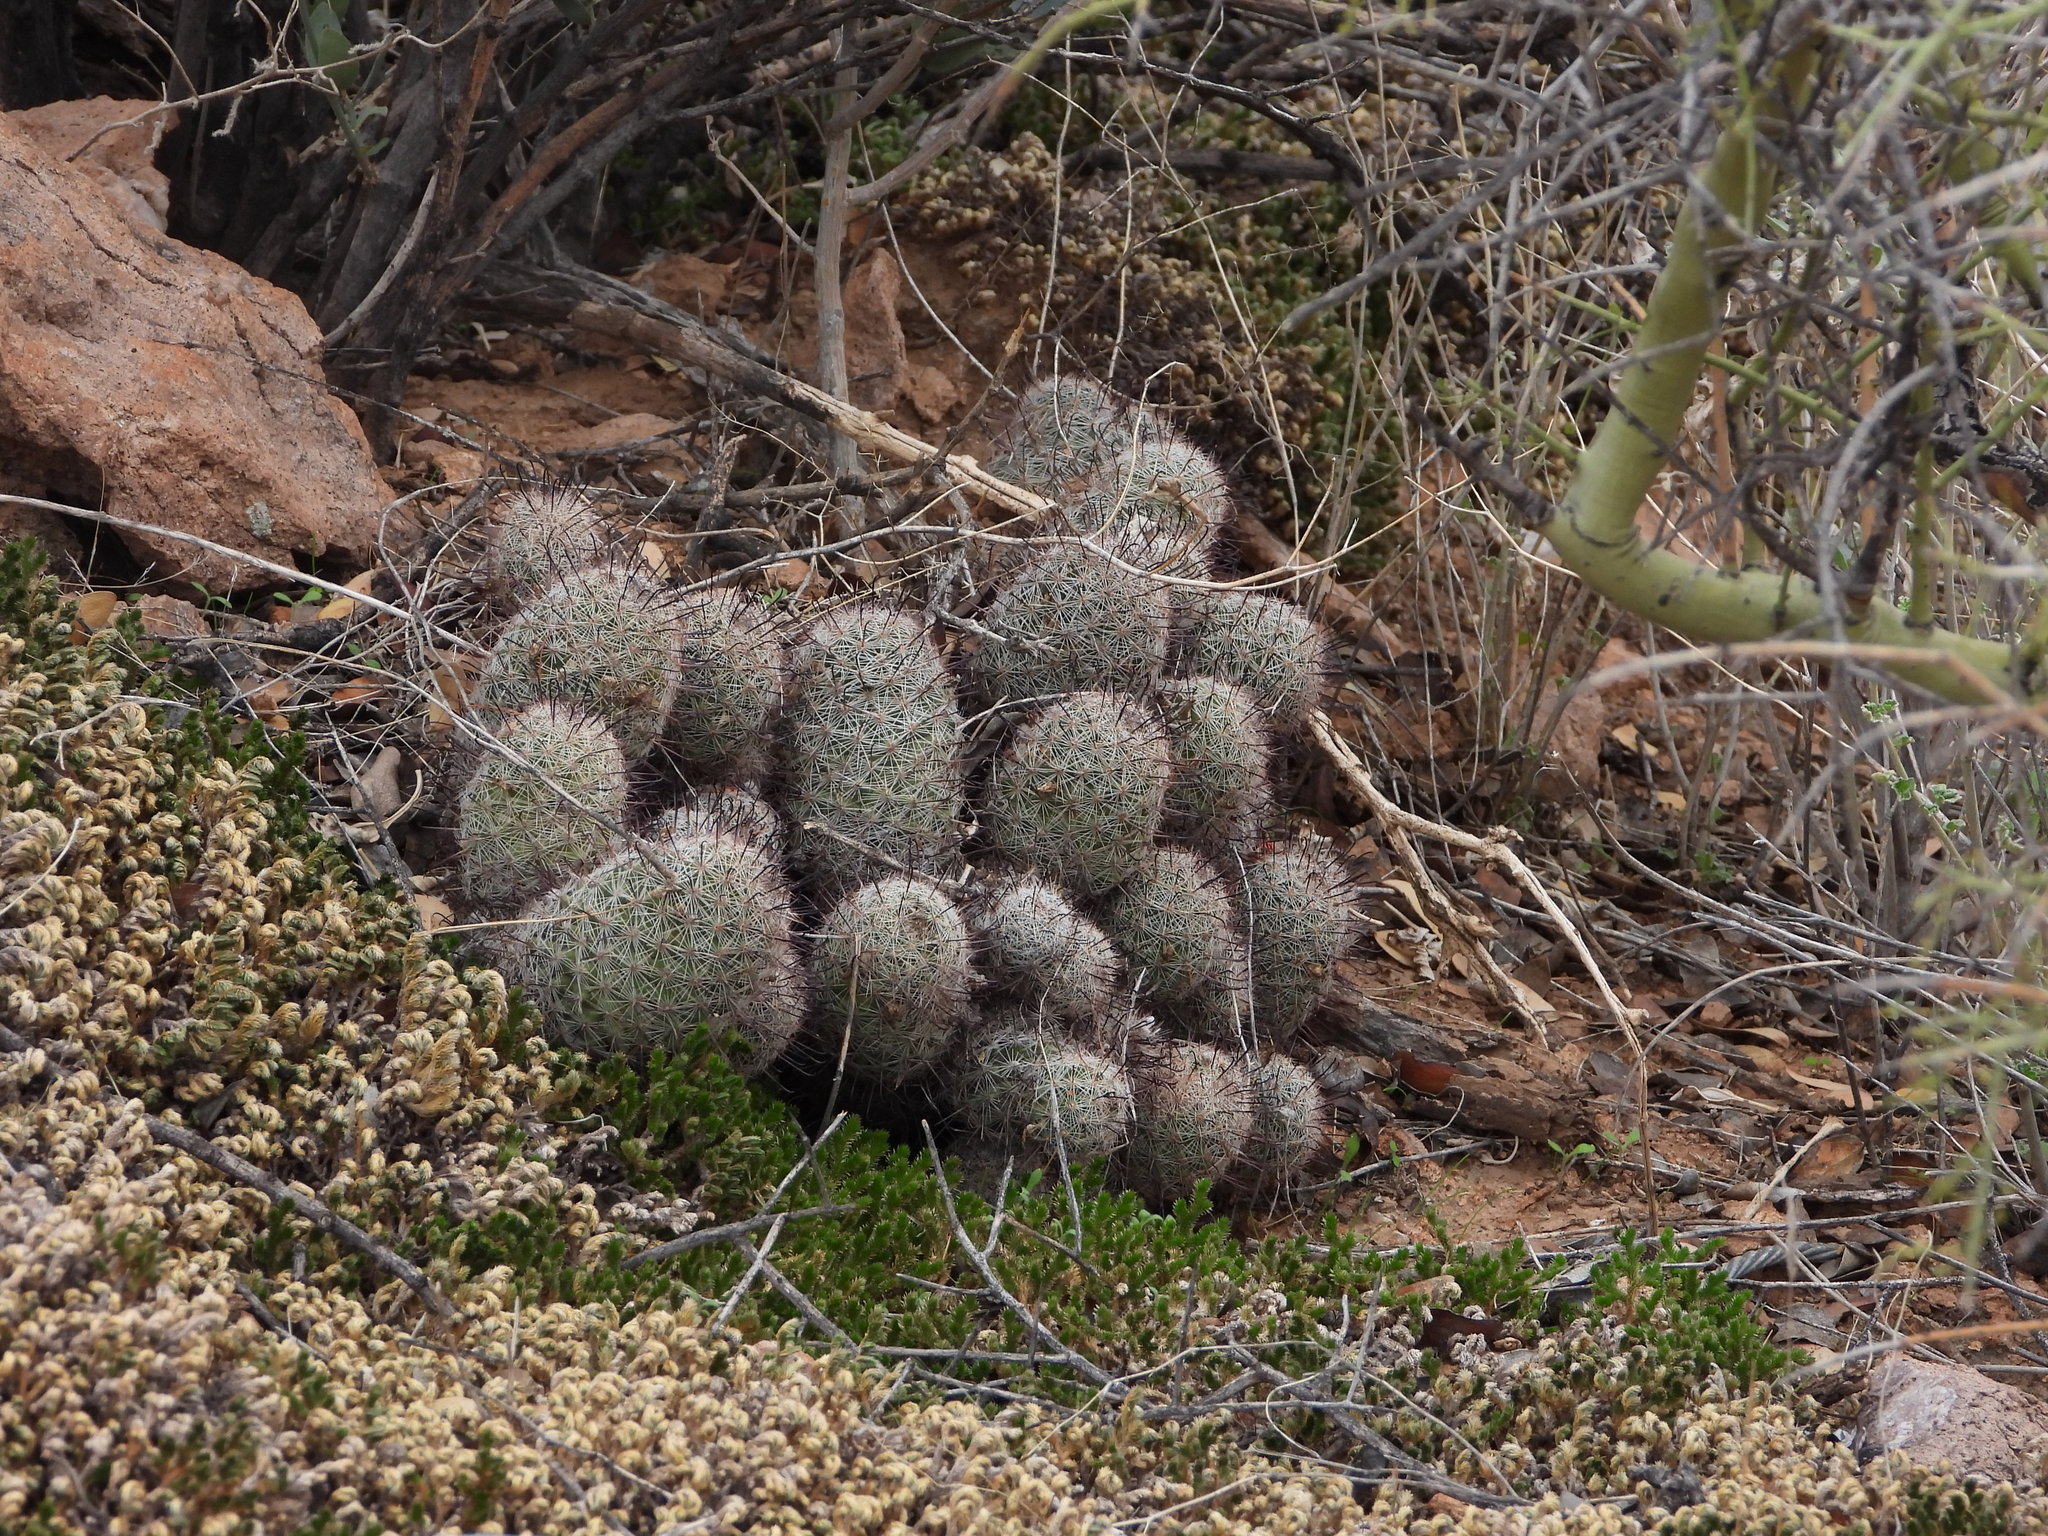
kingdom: Plantae
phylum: Tracheophyta
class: Magnoliopsida
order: Caryophyllales
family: Cactaceae
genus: Cochemiea
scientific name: Cochemiea grahamii
